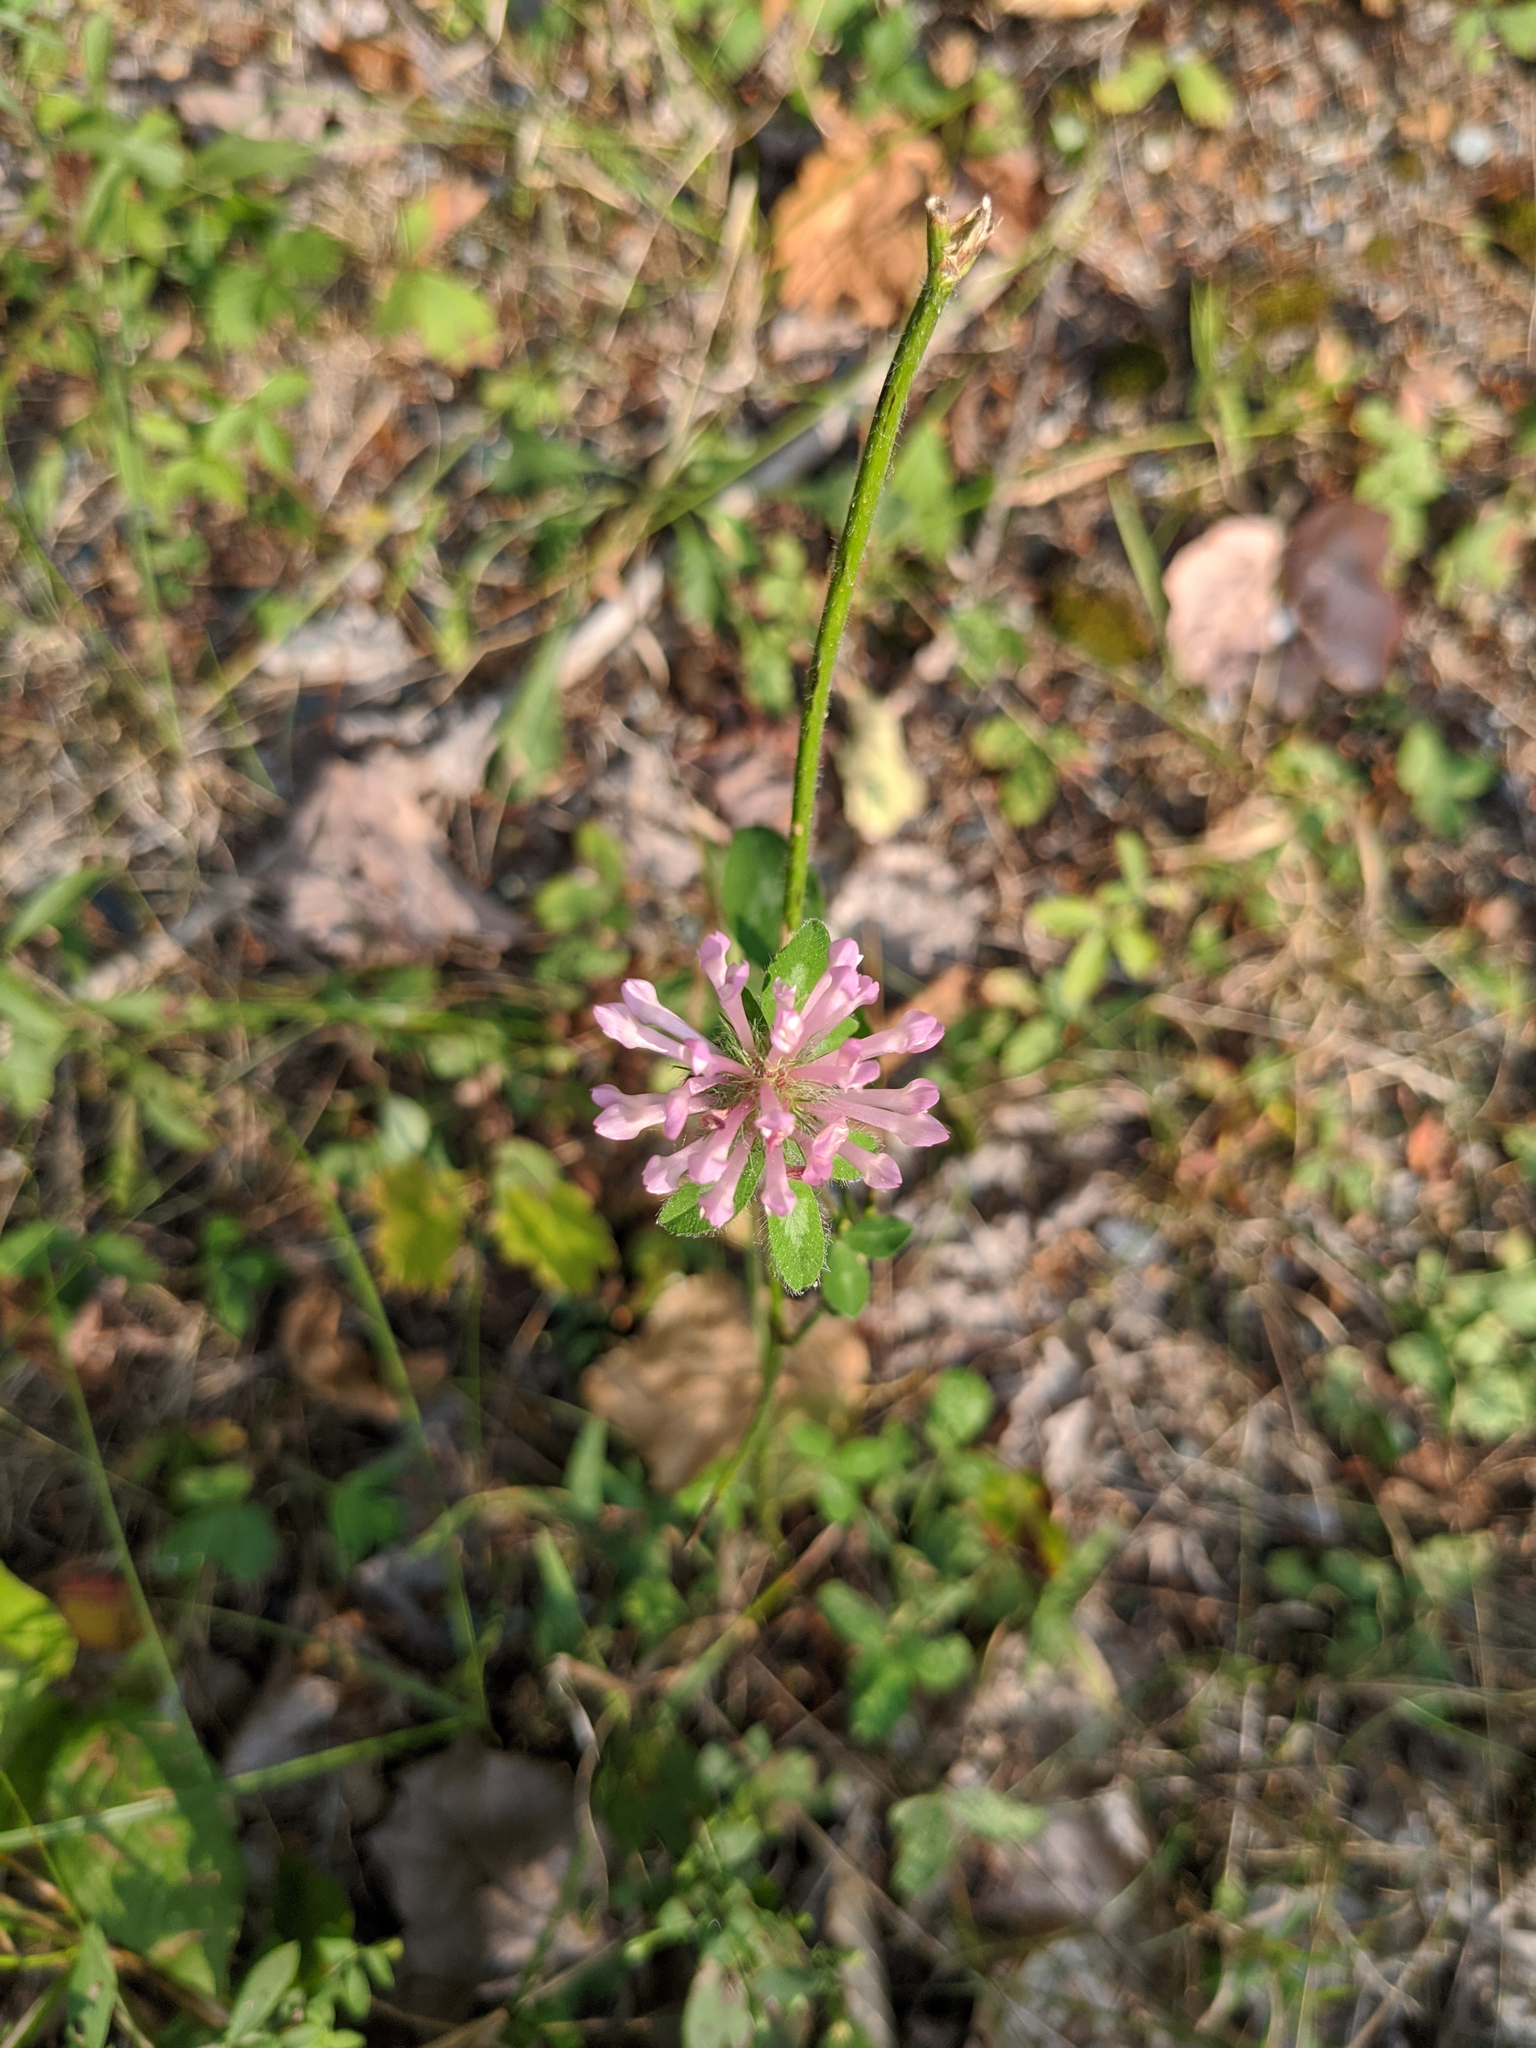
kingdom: Plantae
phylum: Tracheophyta
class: Magnoliopsida
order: Fabales
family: Fabaceae
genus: Trifolium
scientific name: Trifolium pratense
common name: Red clover
